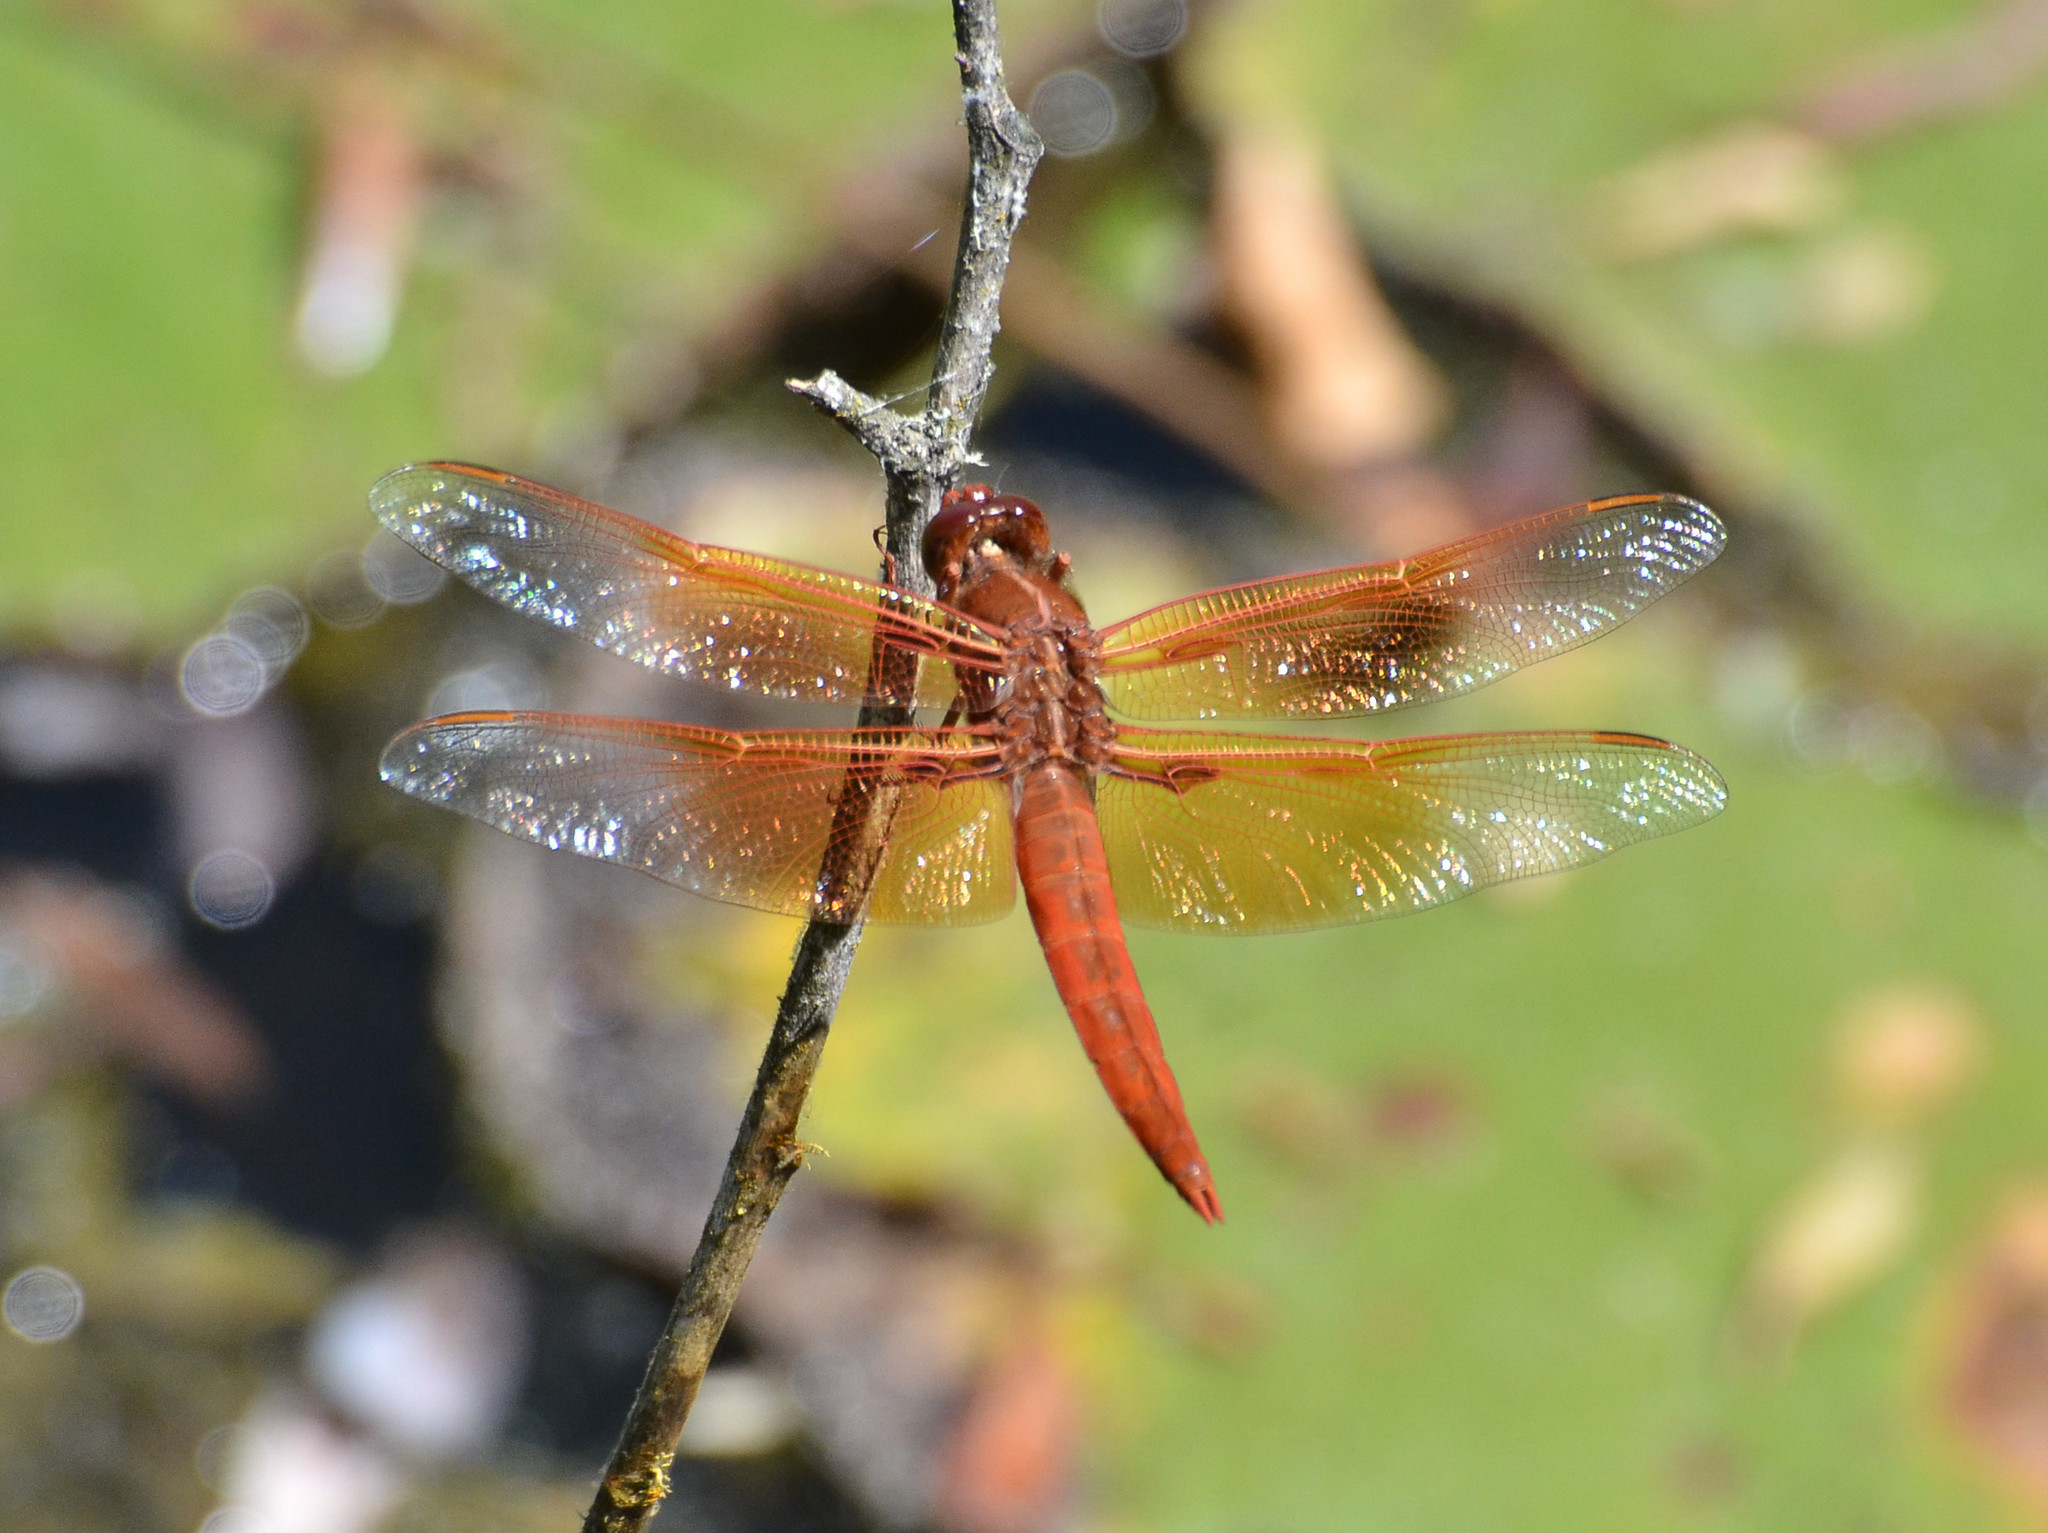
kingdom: Animalia
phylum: Arthropoda
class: Insecta
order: Odonata
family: Libellulidae
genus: Libellula
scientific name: Libellula saturata
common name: Flame skimmer
